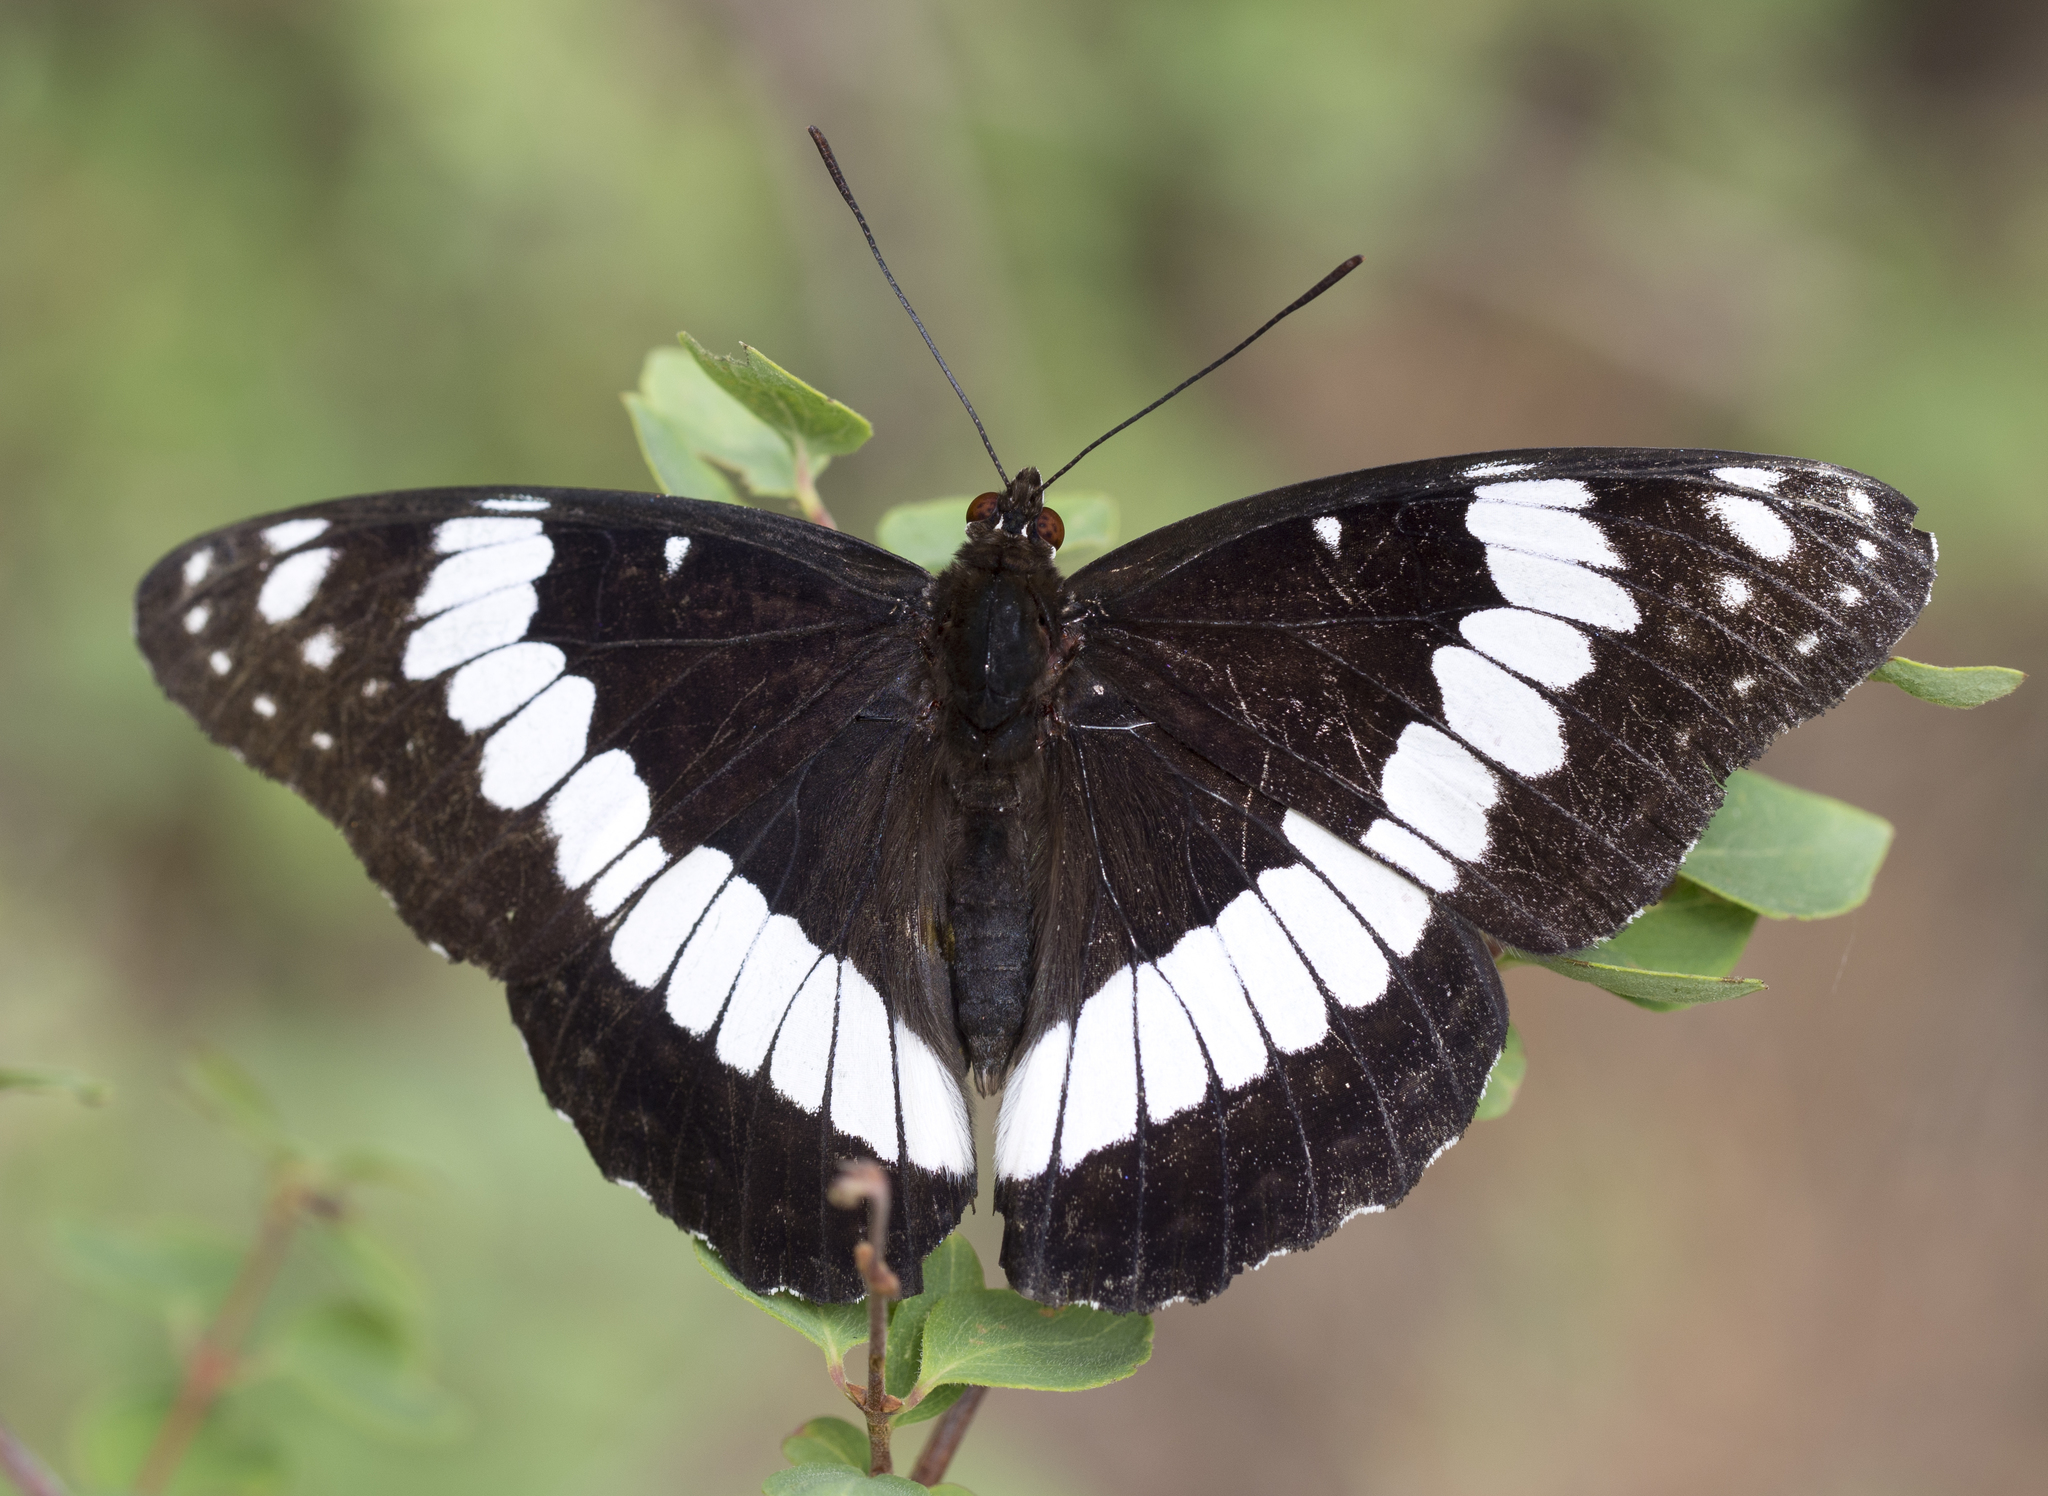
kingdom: Animalia
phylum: Arthropoda
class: Insecta
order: Lepidoptera
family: Nymphalidae
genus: Limenitis
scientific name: Limenitis weidemeyerii
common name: Weidemeyer's admiral
